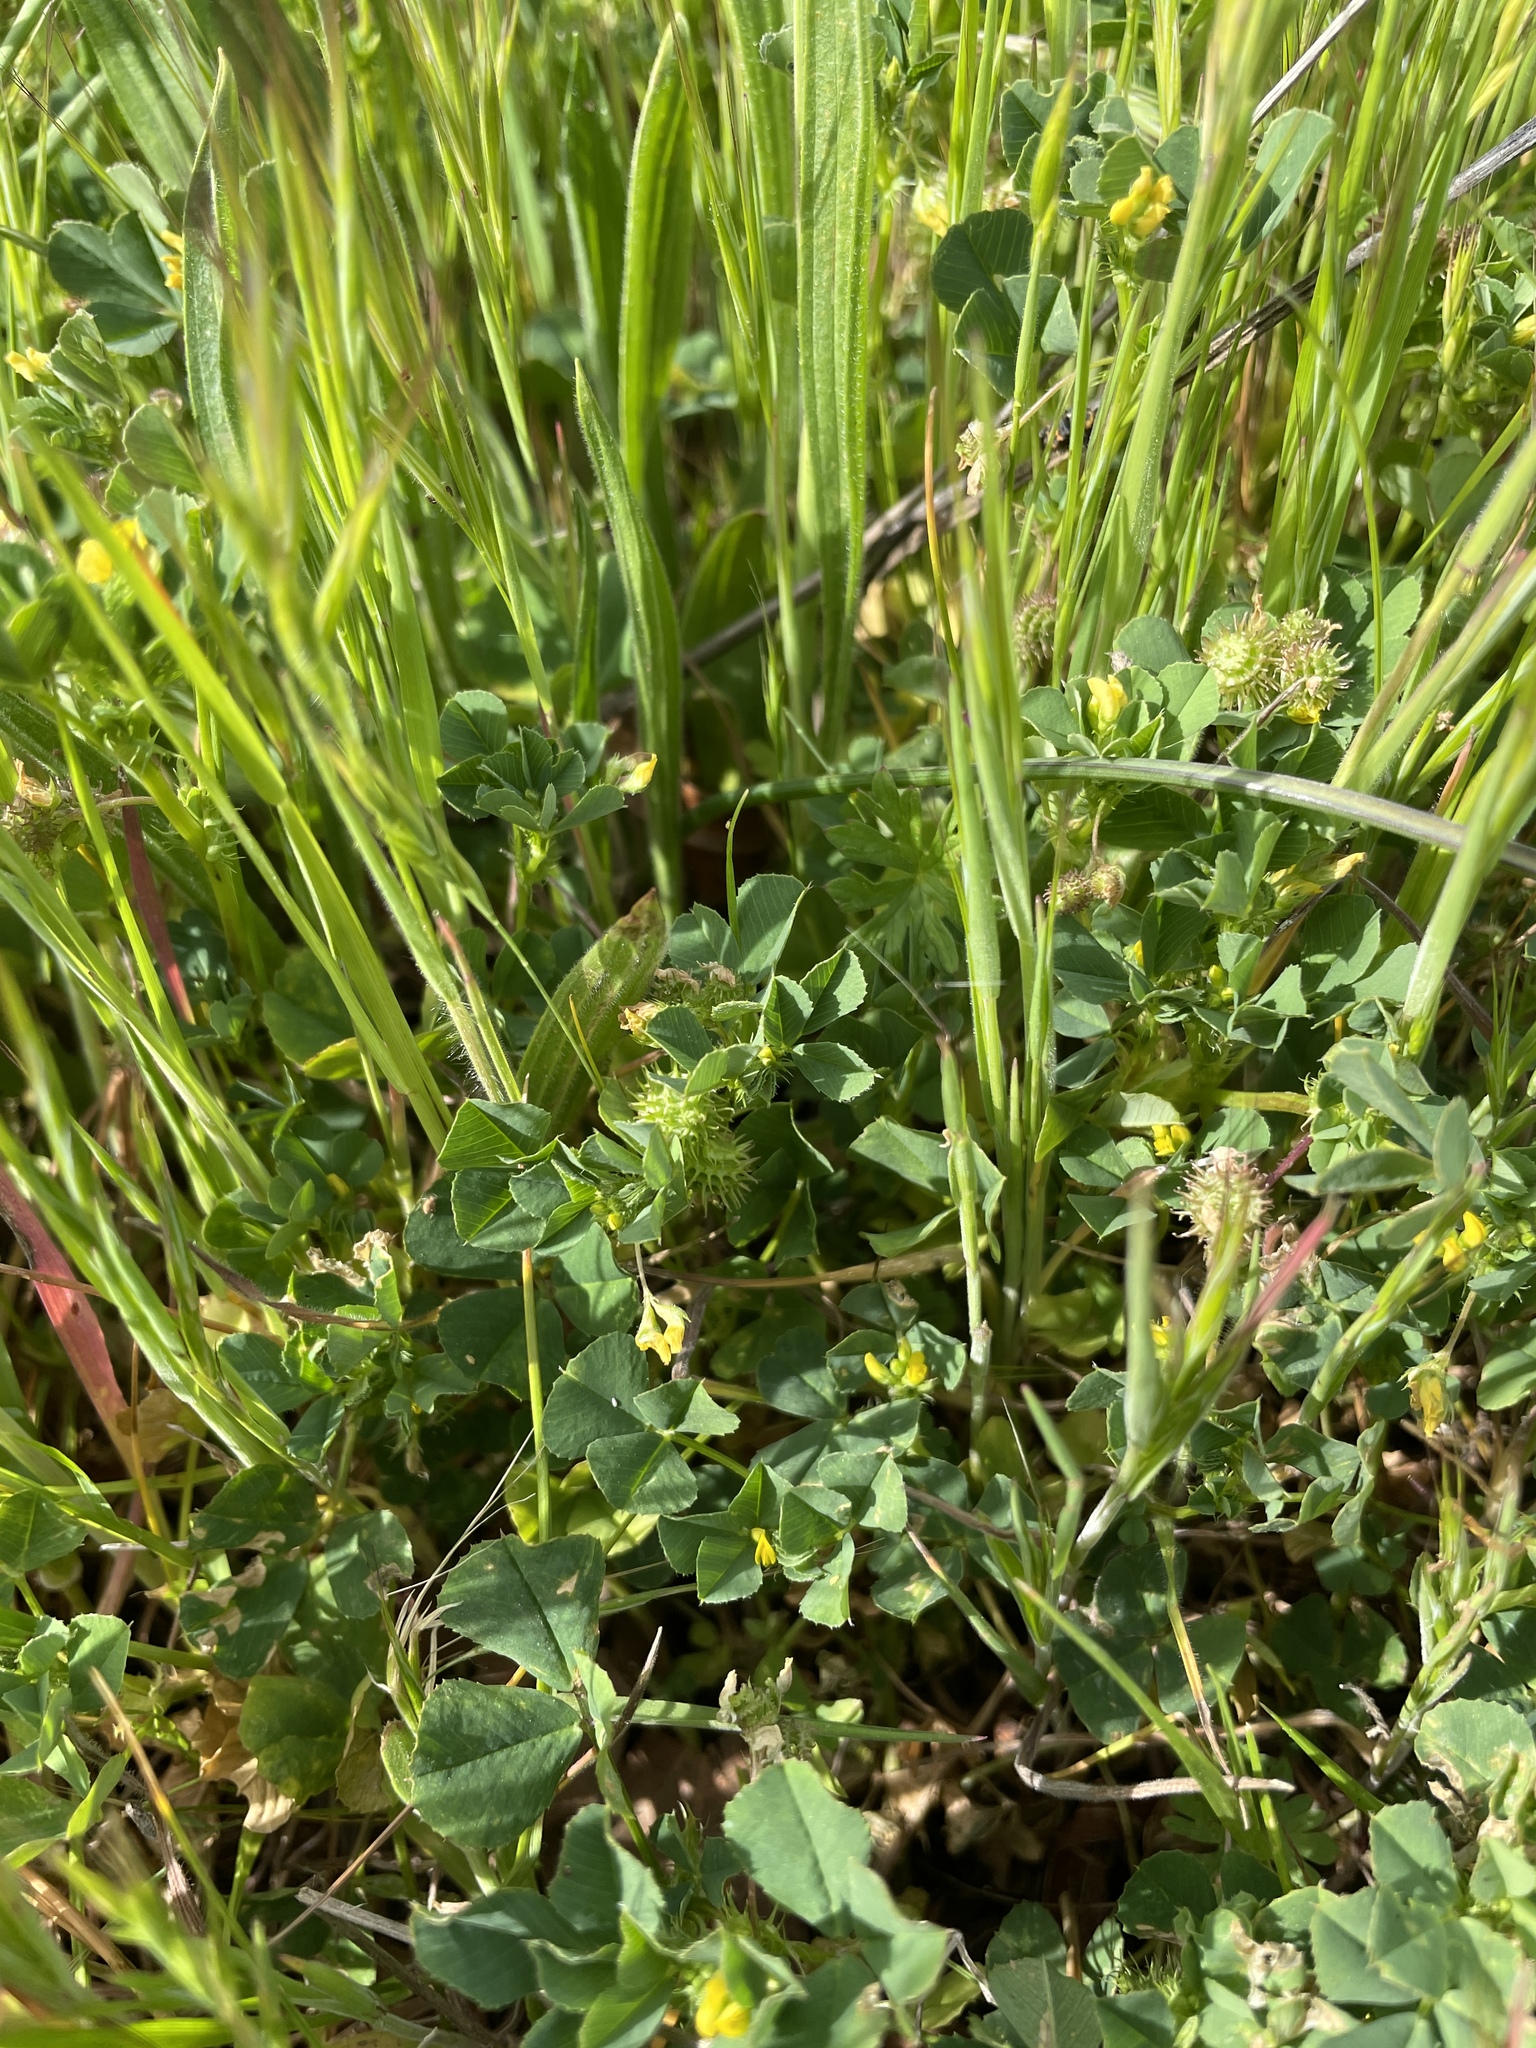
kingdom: Plantae
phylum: Tracheophyta
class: Magnoliopsida
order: Fabales
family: Fabaceae
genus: Medicago
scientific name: Medicago polymorpha
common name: Burclover
